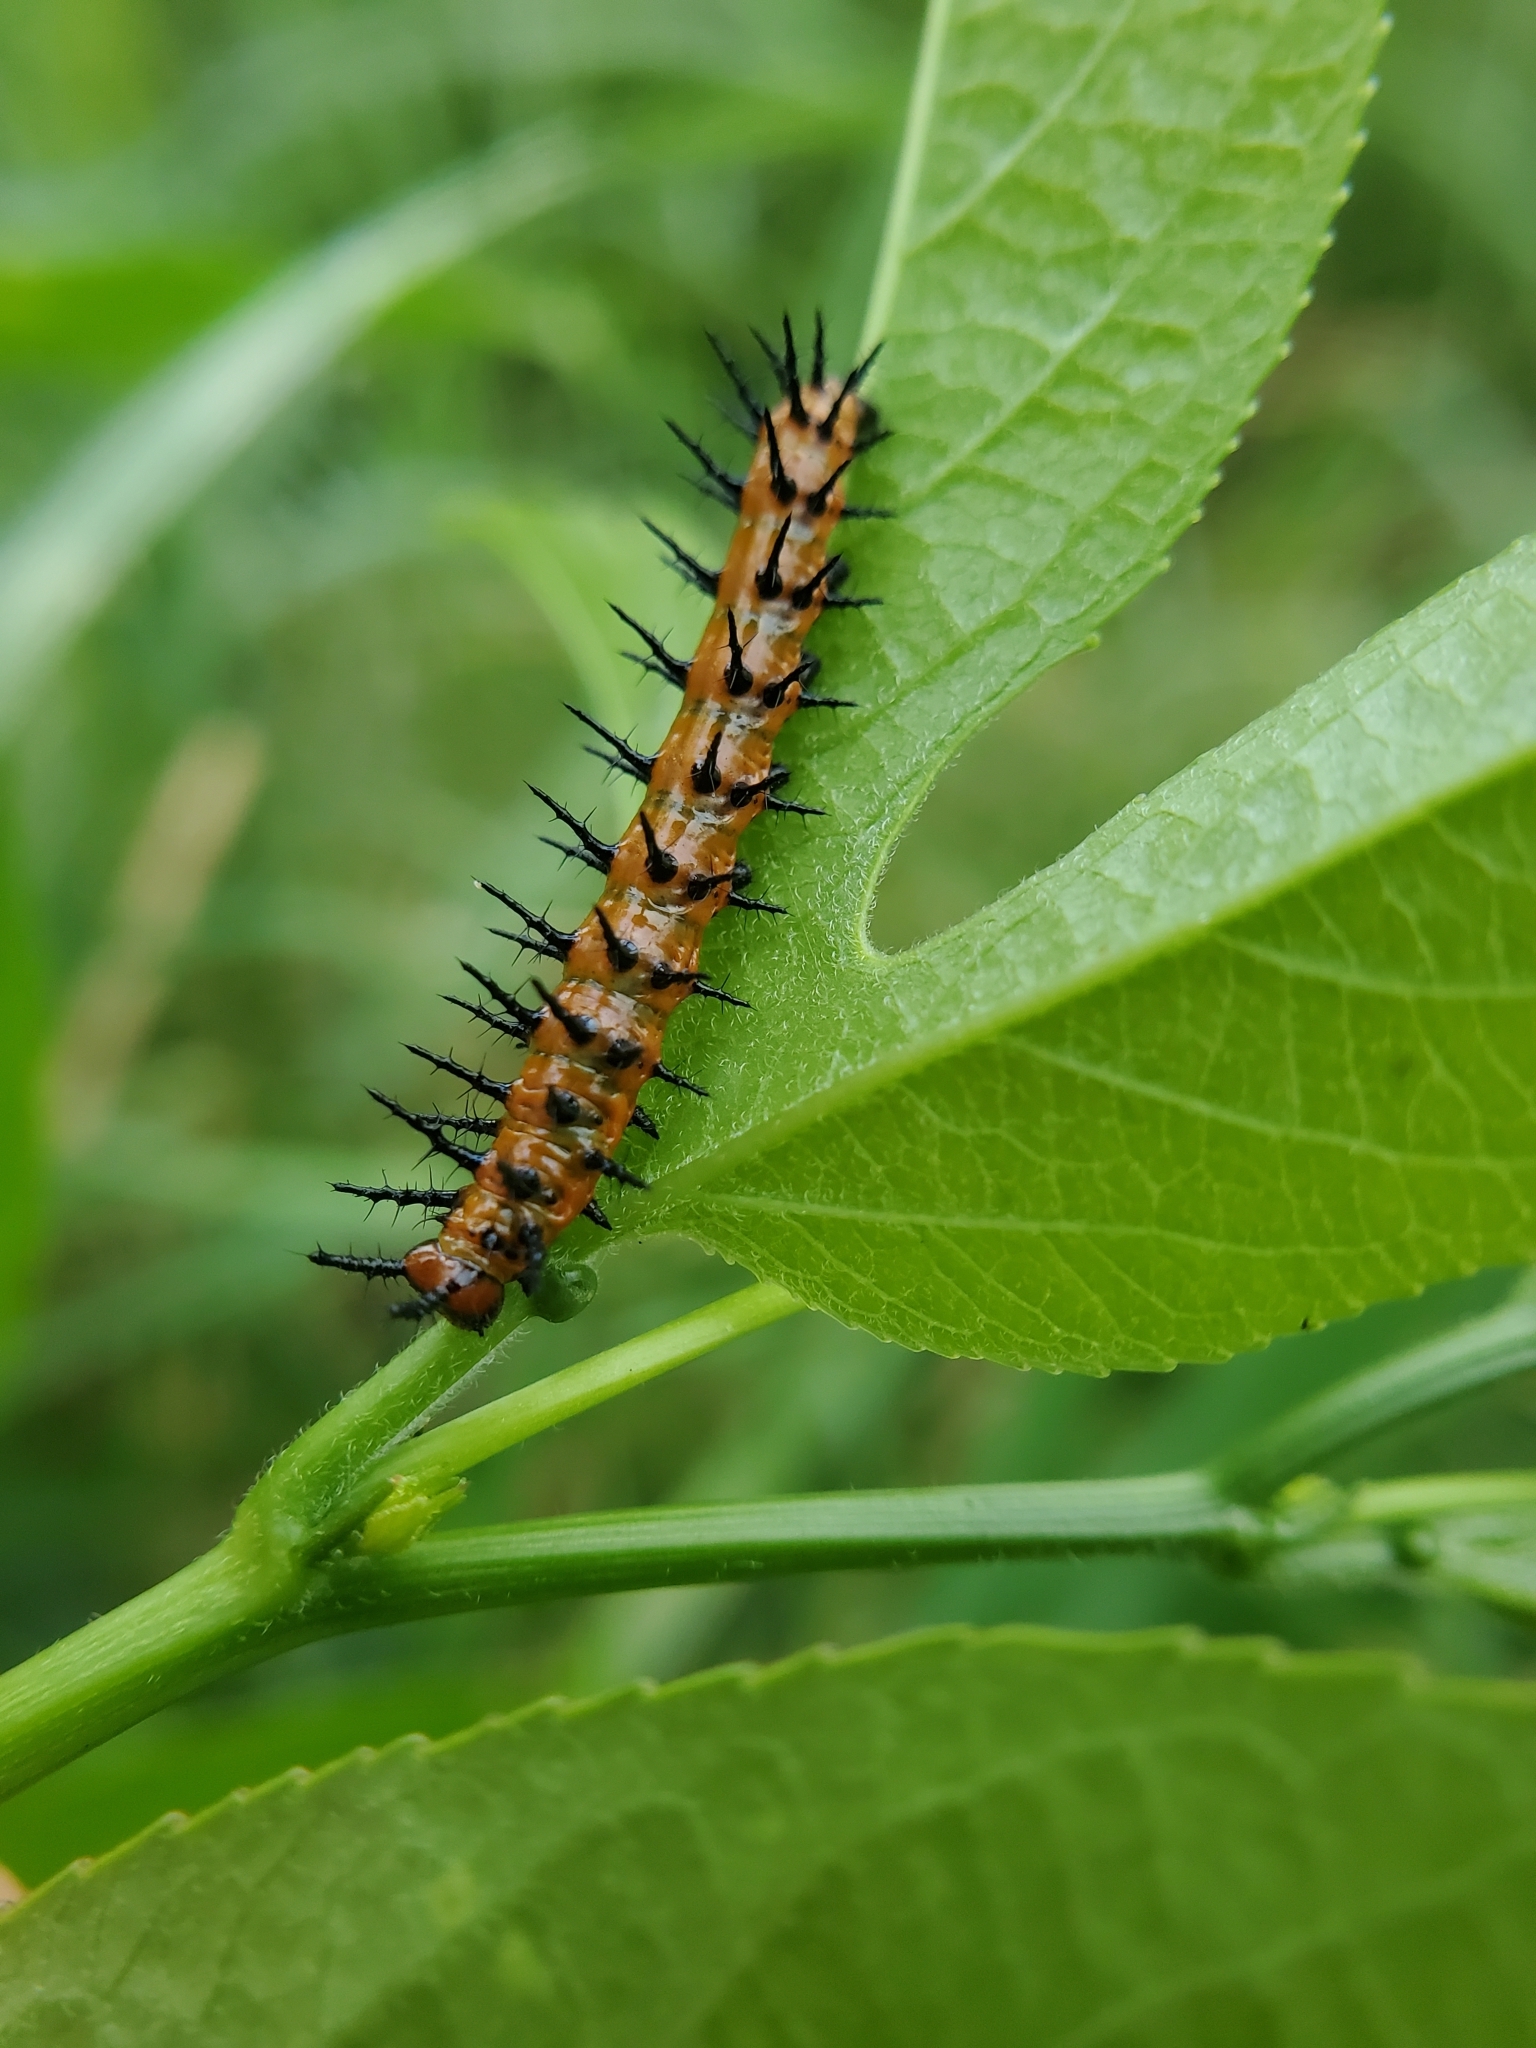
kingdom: Animalia
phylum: Arthropoda
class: Insecta
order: Lepidoptera
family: Nymphalidae
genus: Dione
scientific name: Dione vanillae
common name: Gulf fritillary
